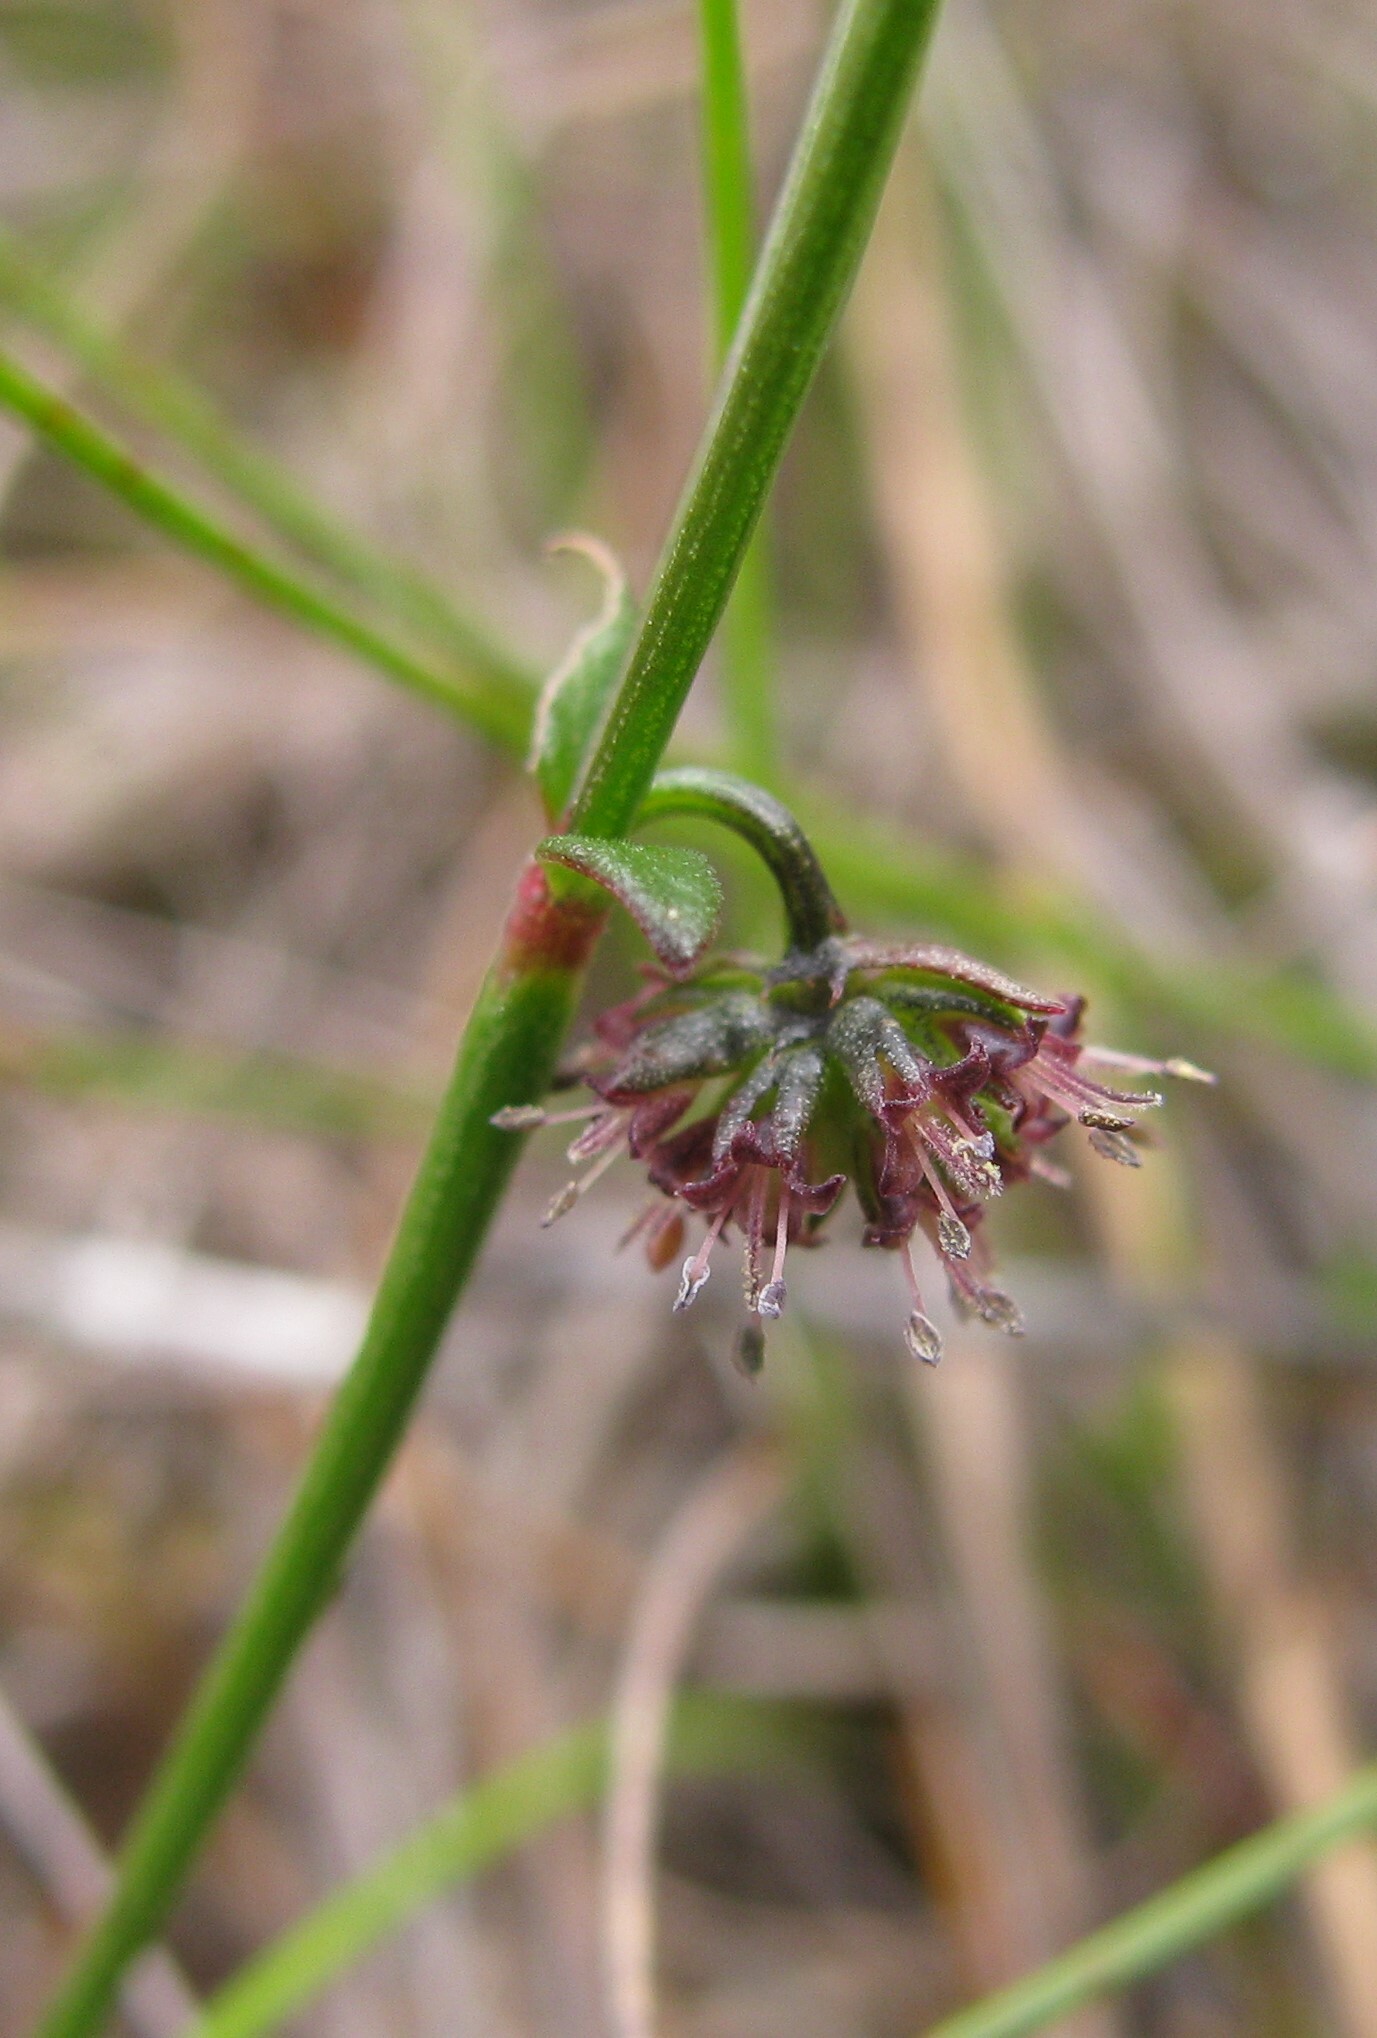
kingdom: Plantae
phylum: Tracheophyta
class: Magnoliopsida
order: Gentianales
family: Rubiaceae
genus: Opercularia
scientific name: Opercularia varia
